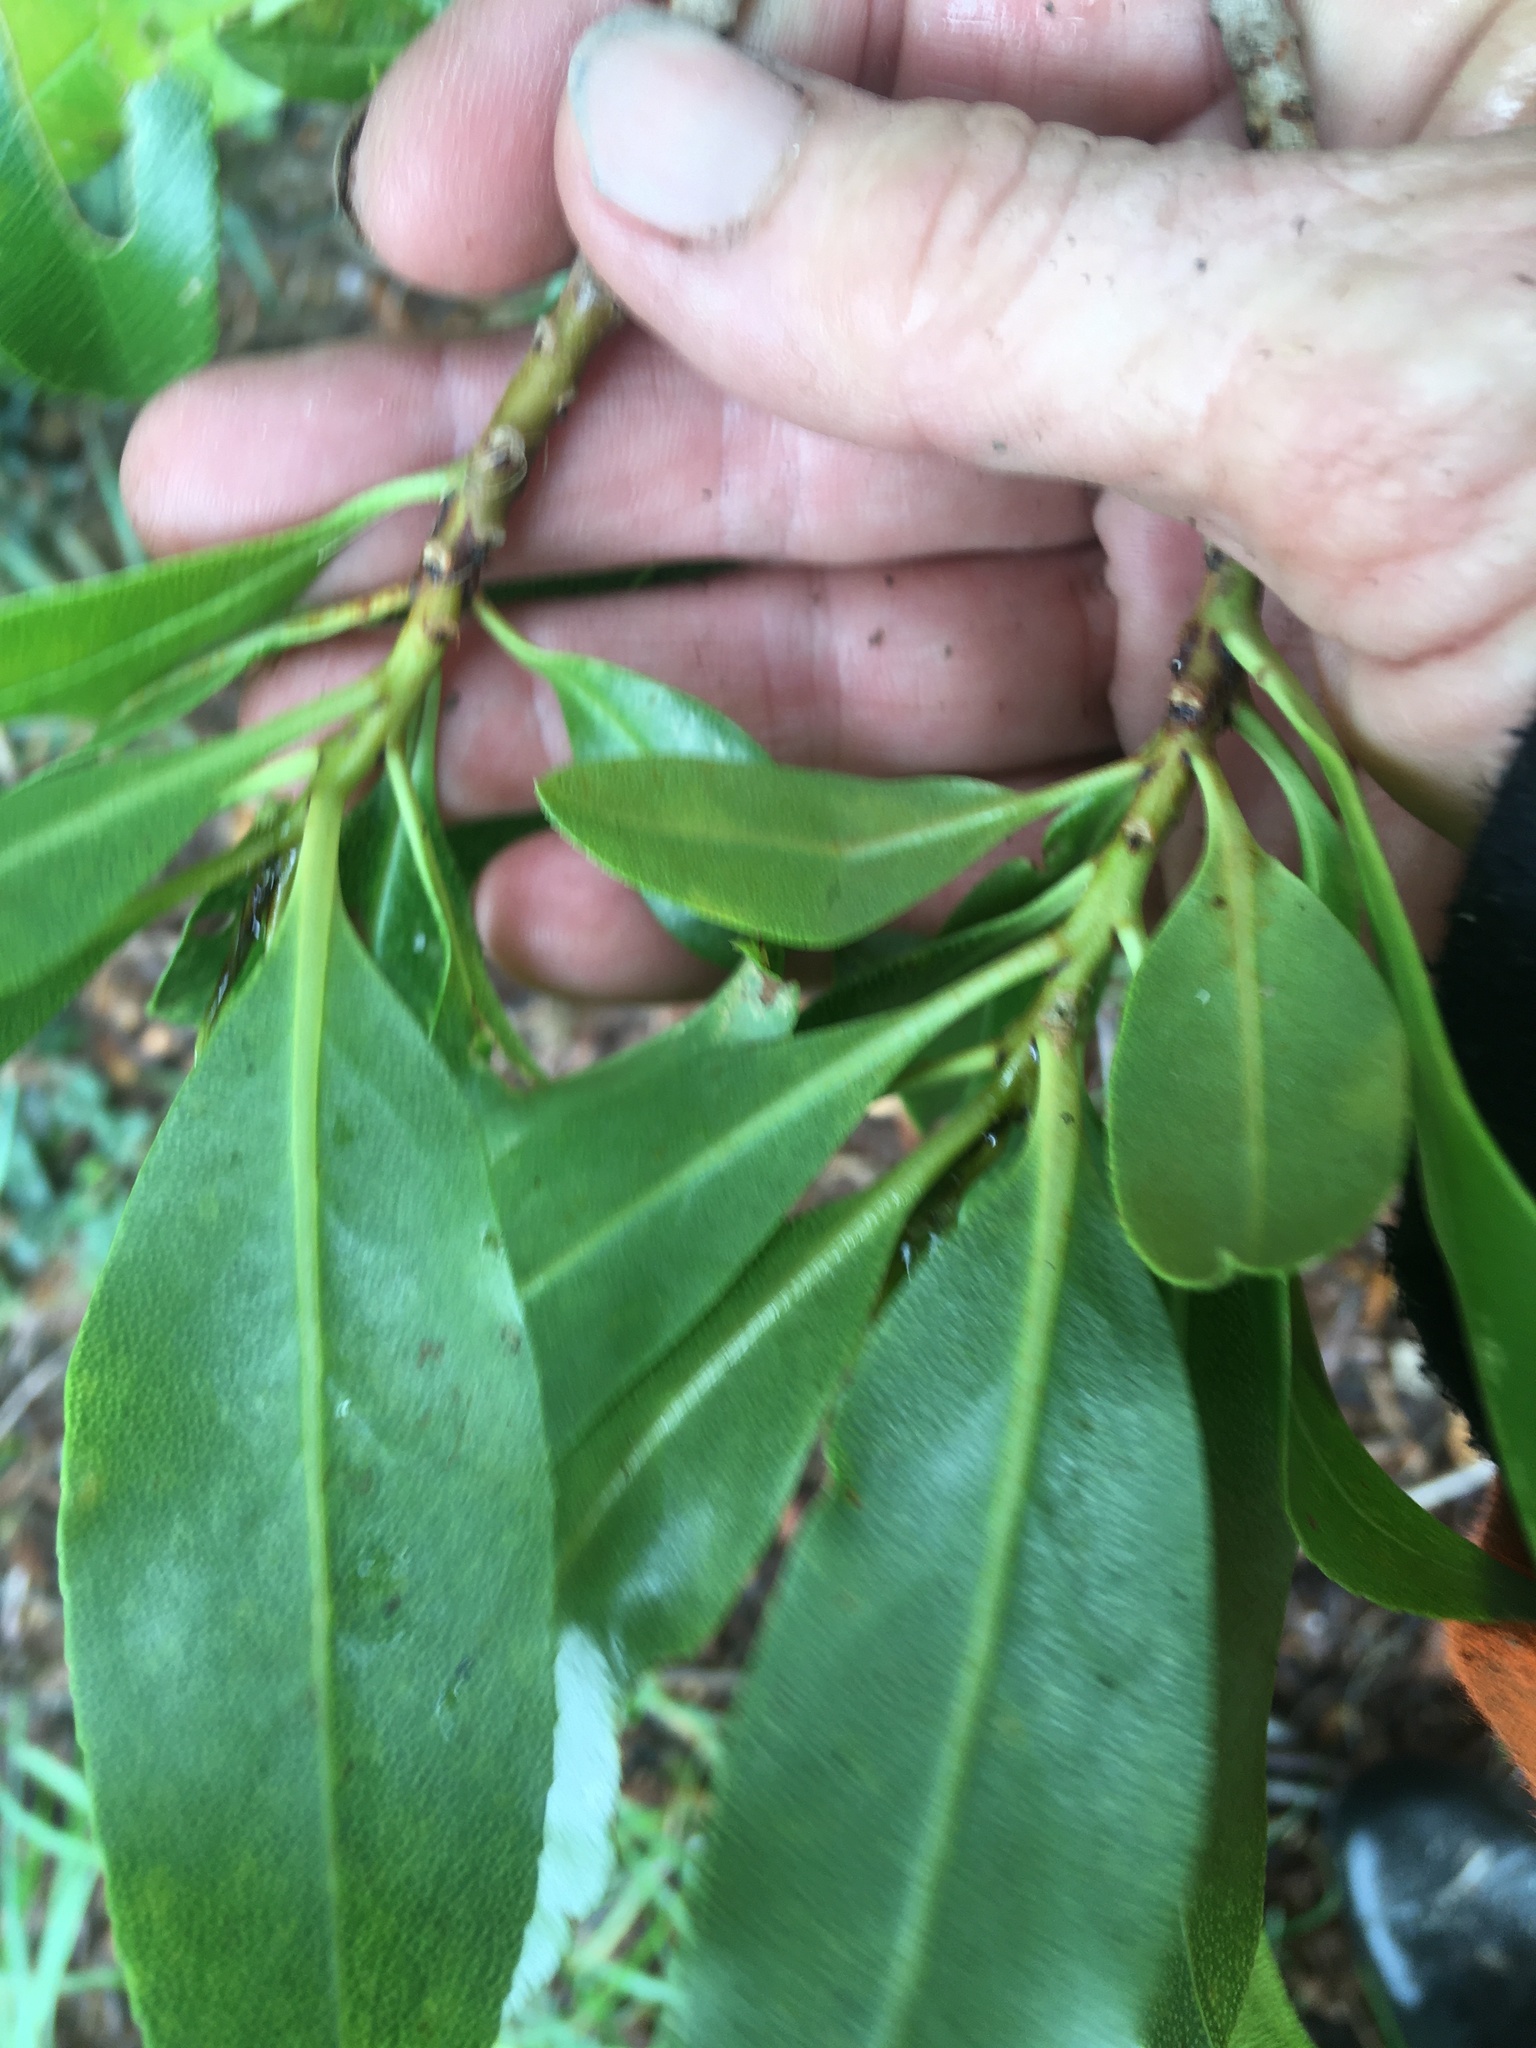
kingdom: Plantae
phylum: Tracheophyta
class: Magnoliopsida
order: Lamiales
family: Scrophulariaceae
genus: Myoporum
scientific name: Myoporum laetum
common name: Ngaio tree
